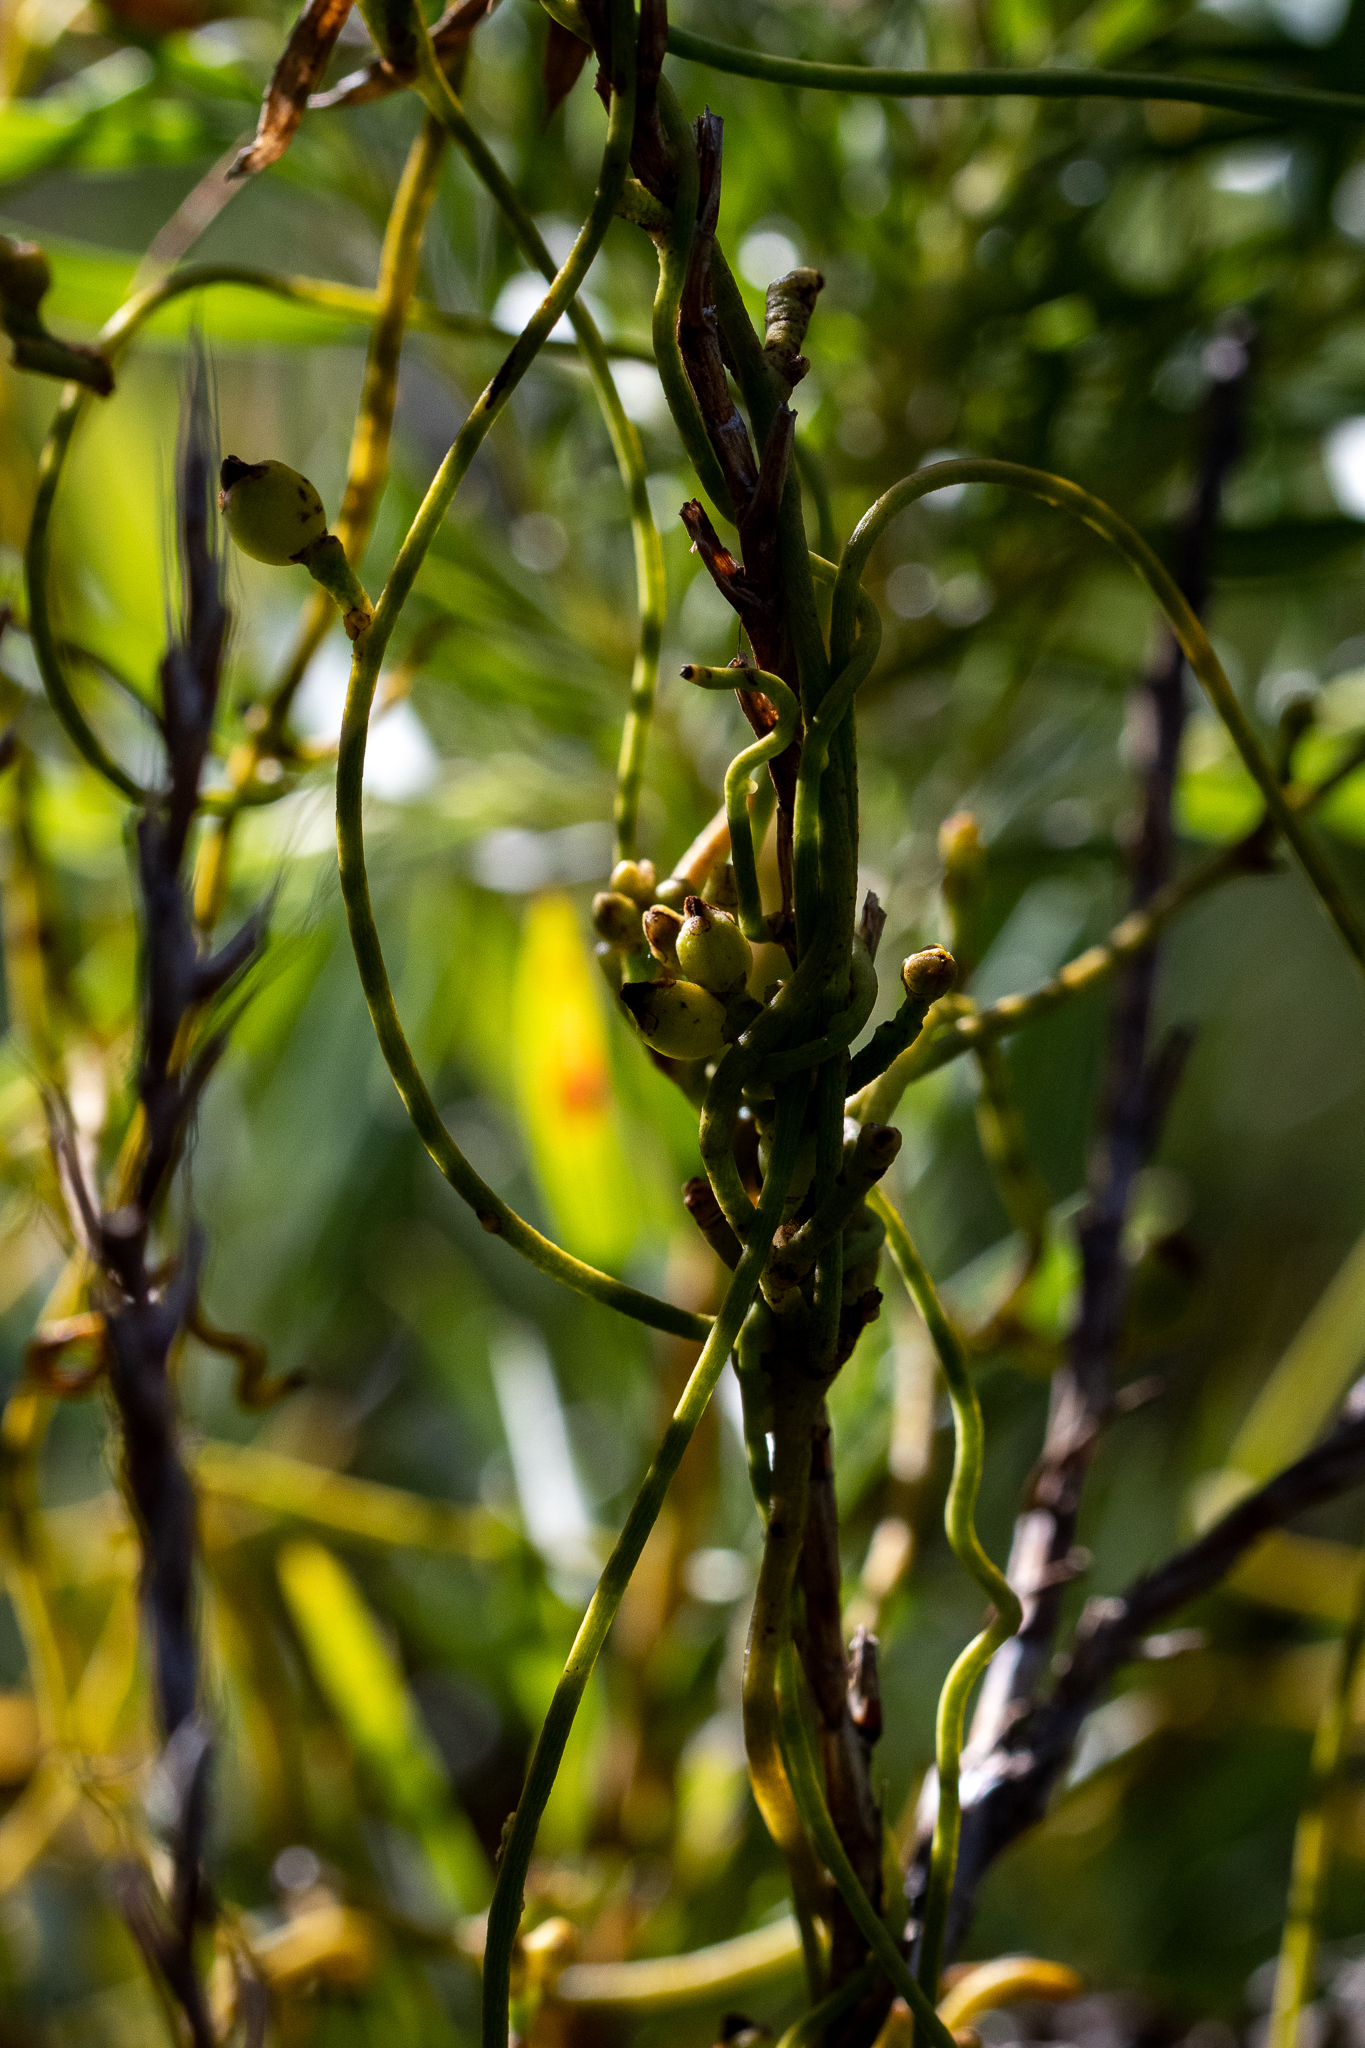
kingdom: Plantae
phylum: Tracheophyta
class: Magnoliopsida
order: Laurales
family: Lauraceae
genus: Cassytha
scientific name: Cassytha ciliolata
